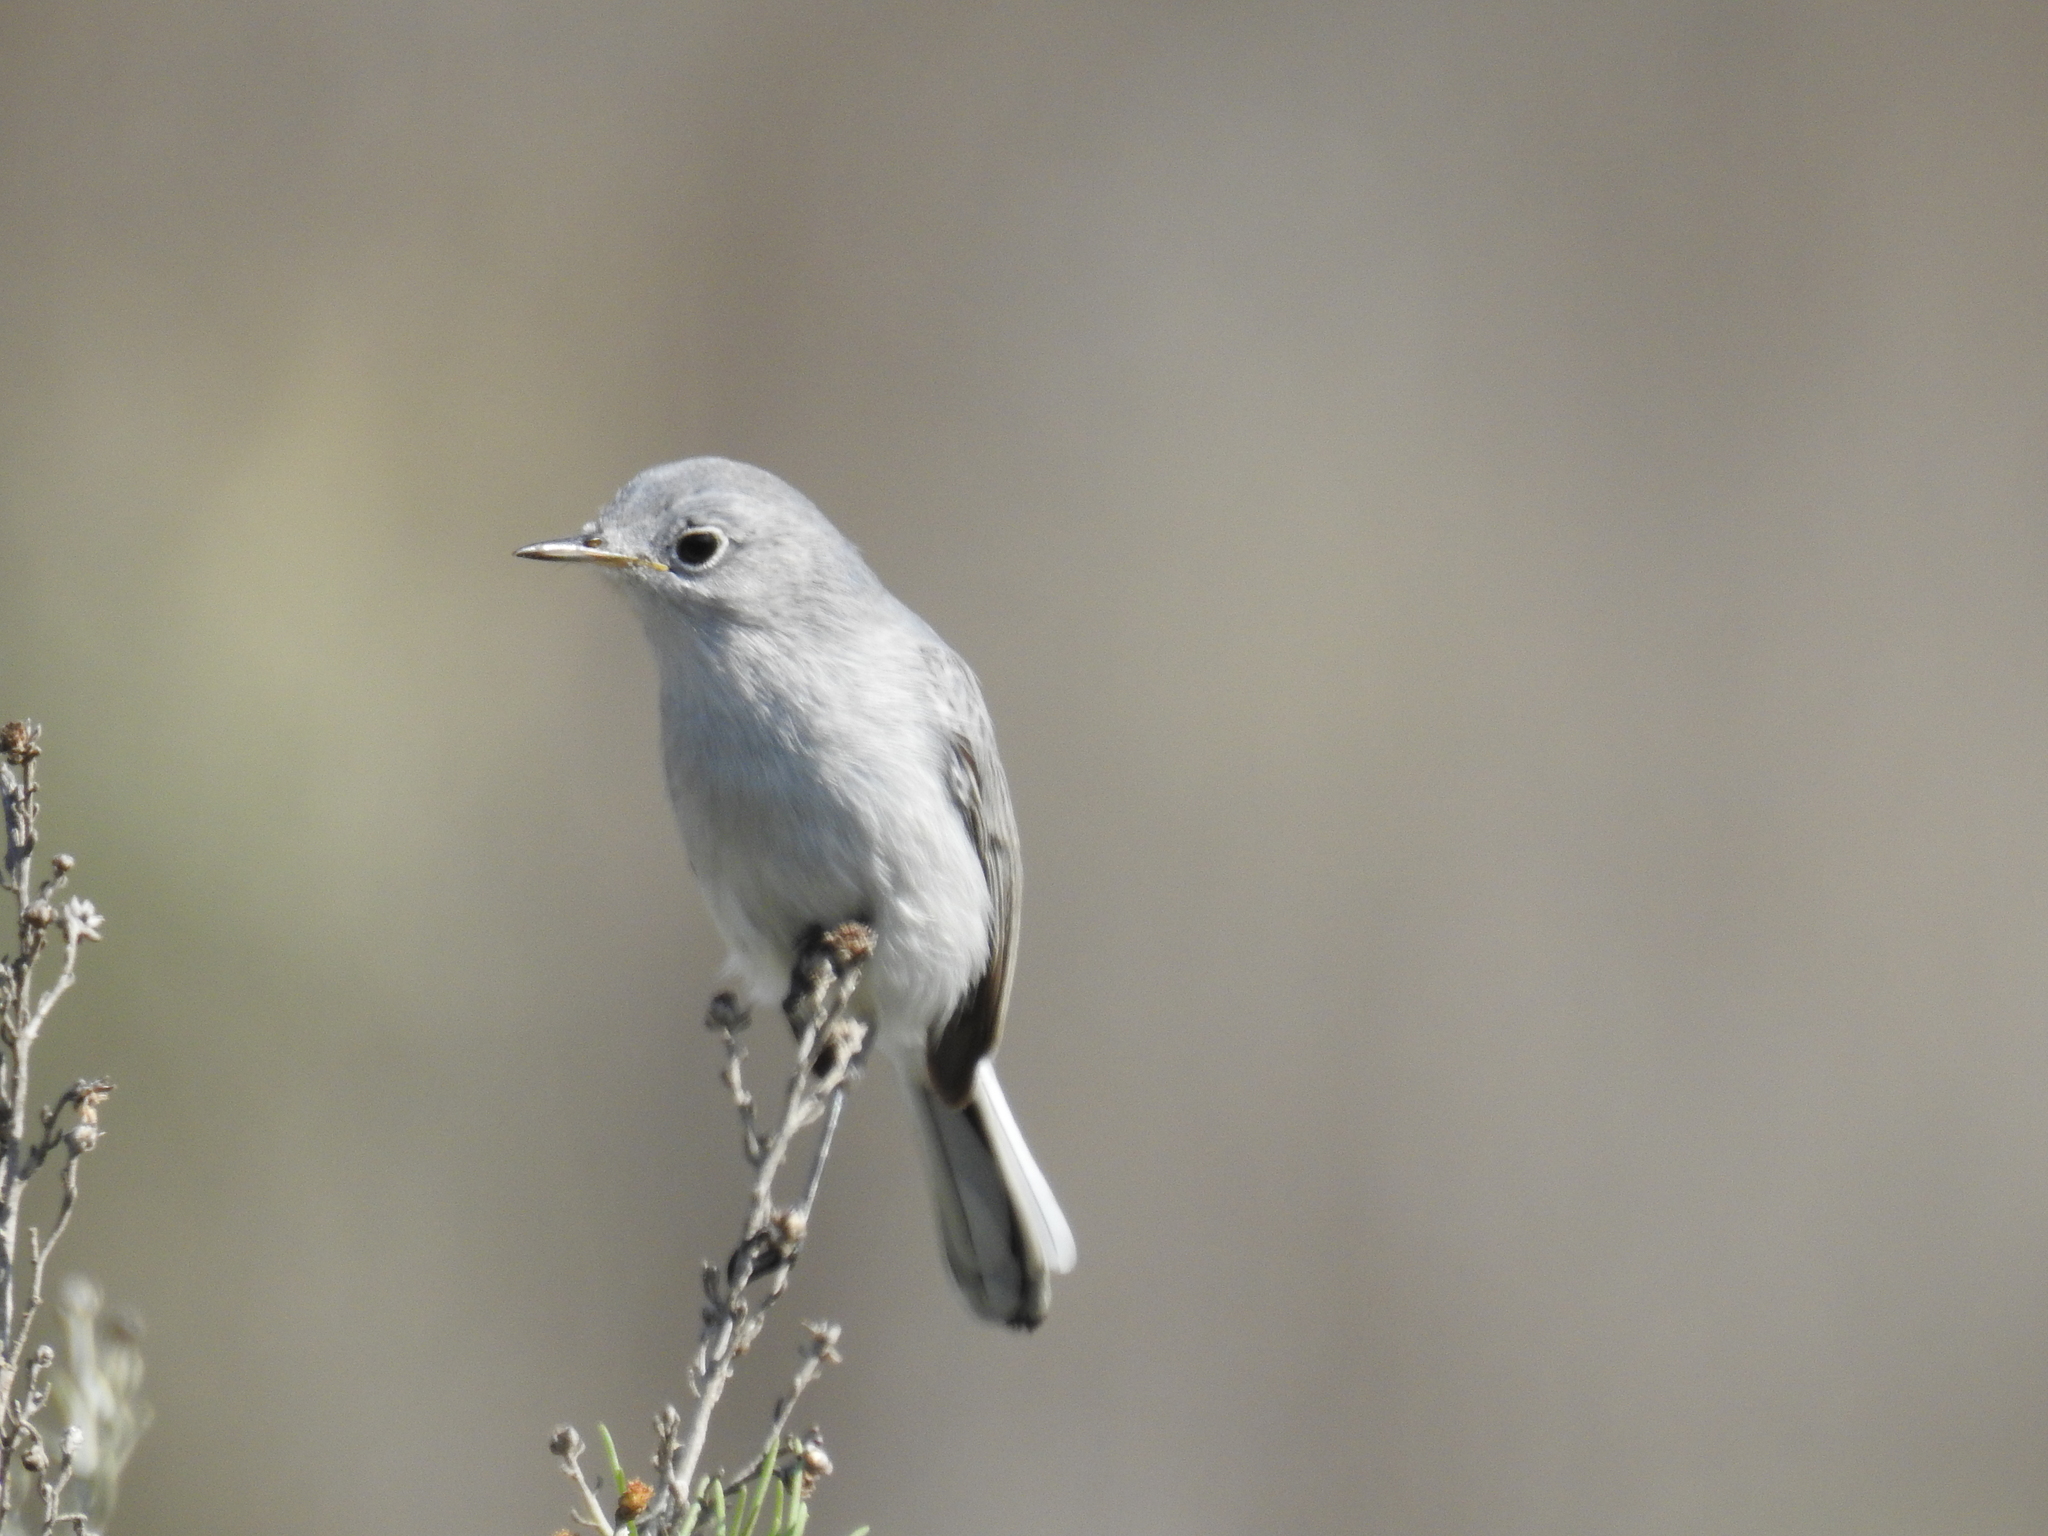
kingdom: Animalia
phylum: Chordata
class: Aves
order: Passeriformes
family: Polioptilidae
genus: Polioptila
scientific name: Polioptila caerulea
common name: Blue-gray gnatcatcher
